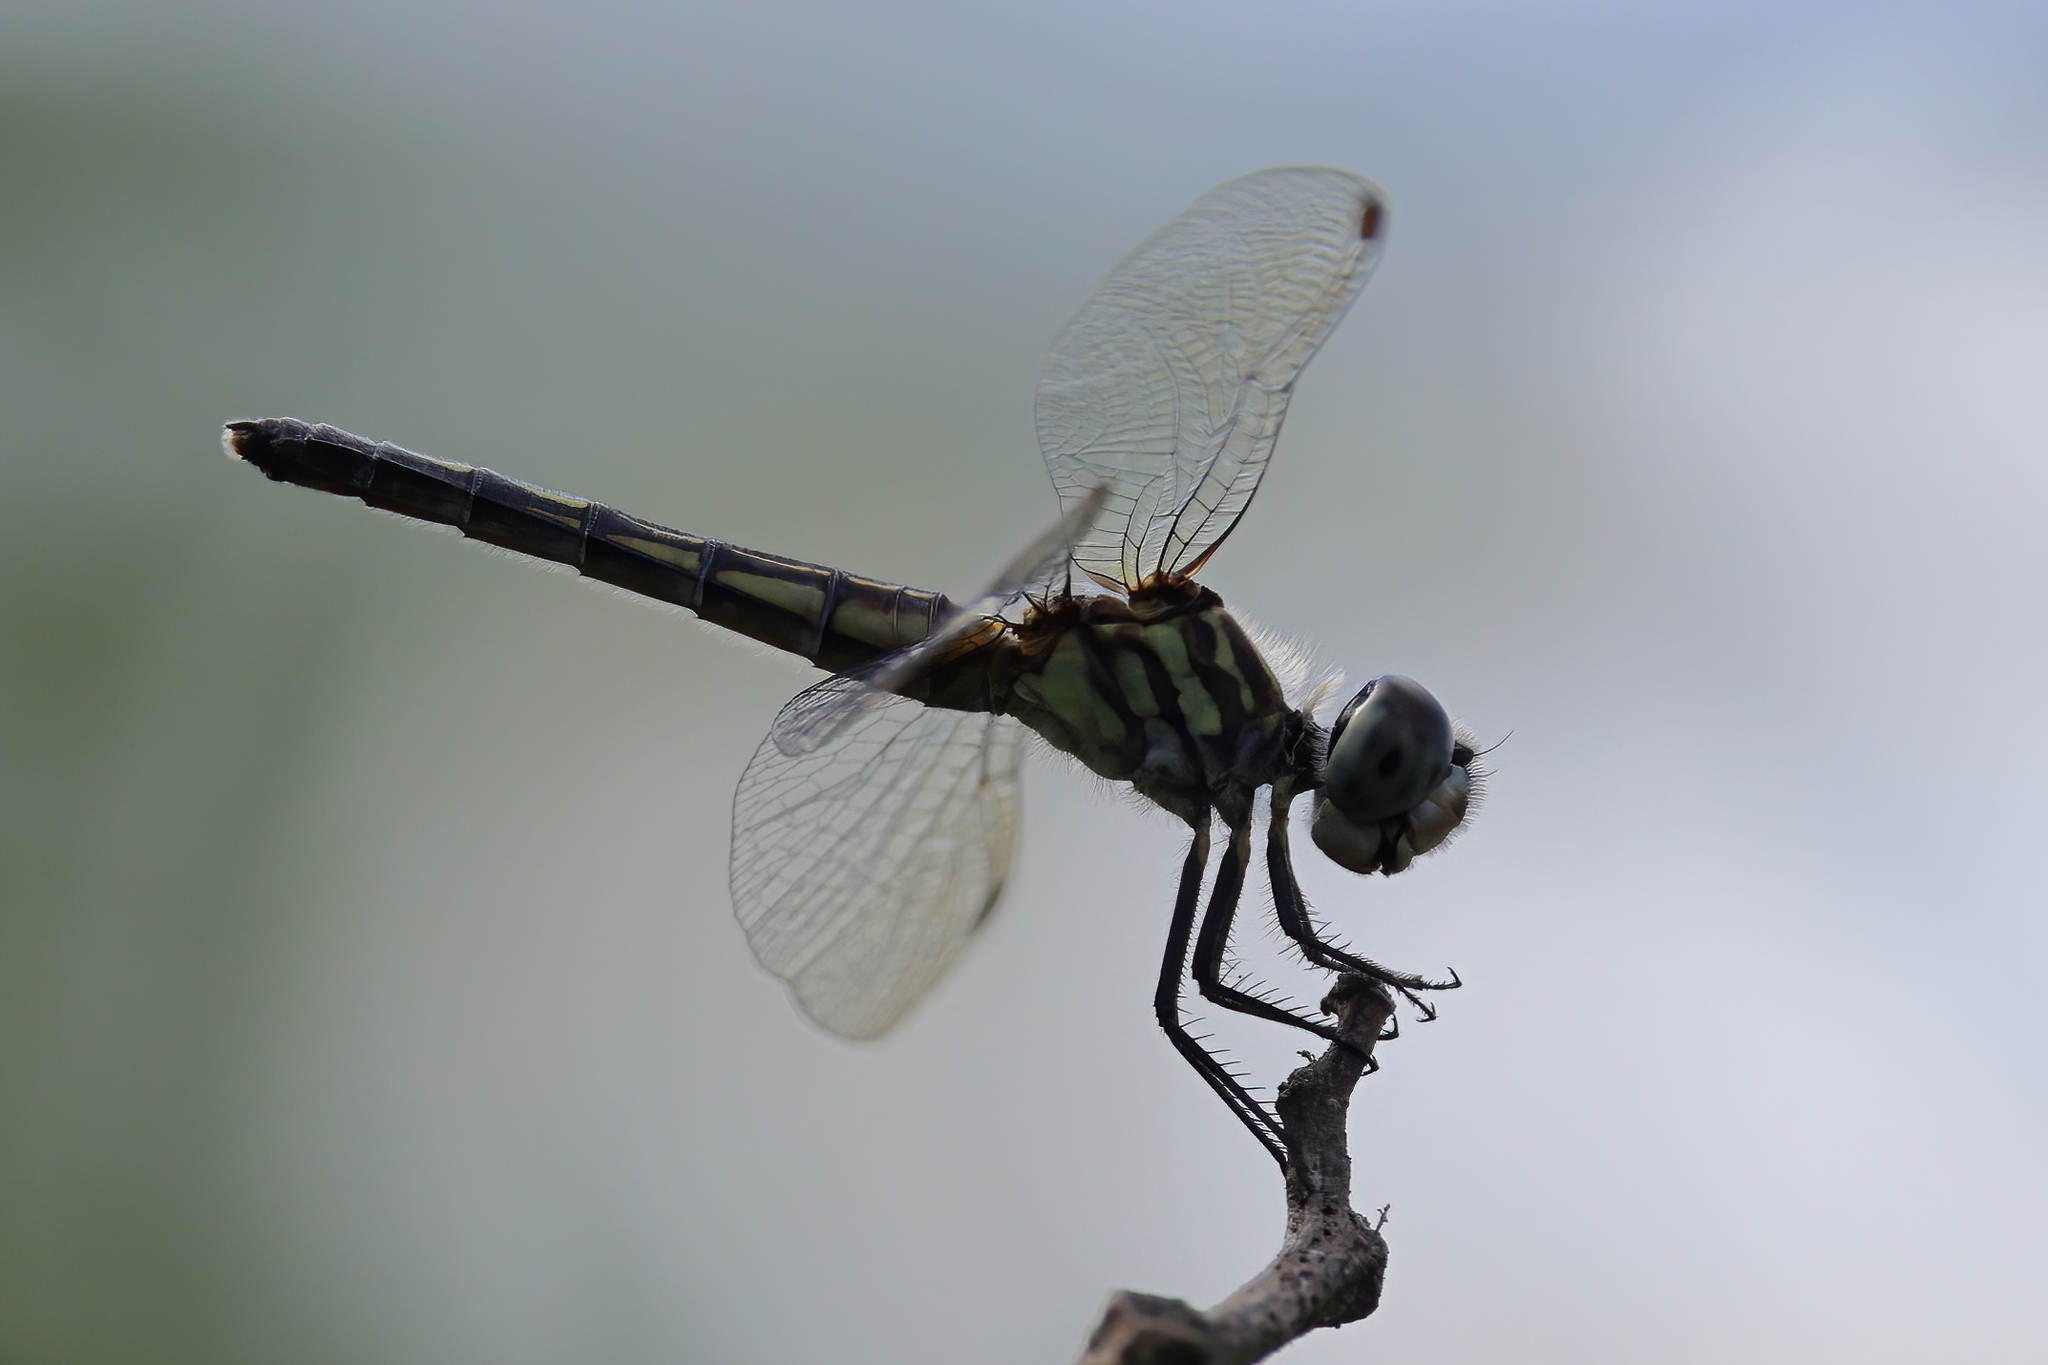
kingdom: Animalia
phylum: Arthropoda
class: Insecta
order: Odonata
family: Libellulidae
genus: Pachydiplax
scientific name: Pachydiplax longipennis
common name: Blue dasher
